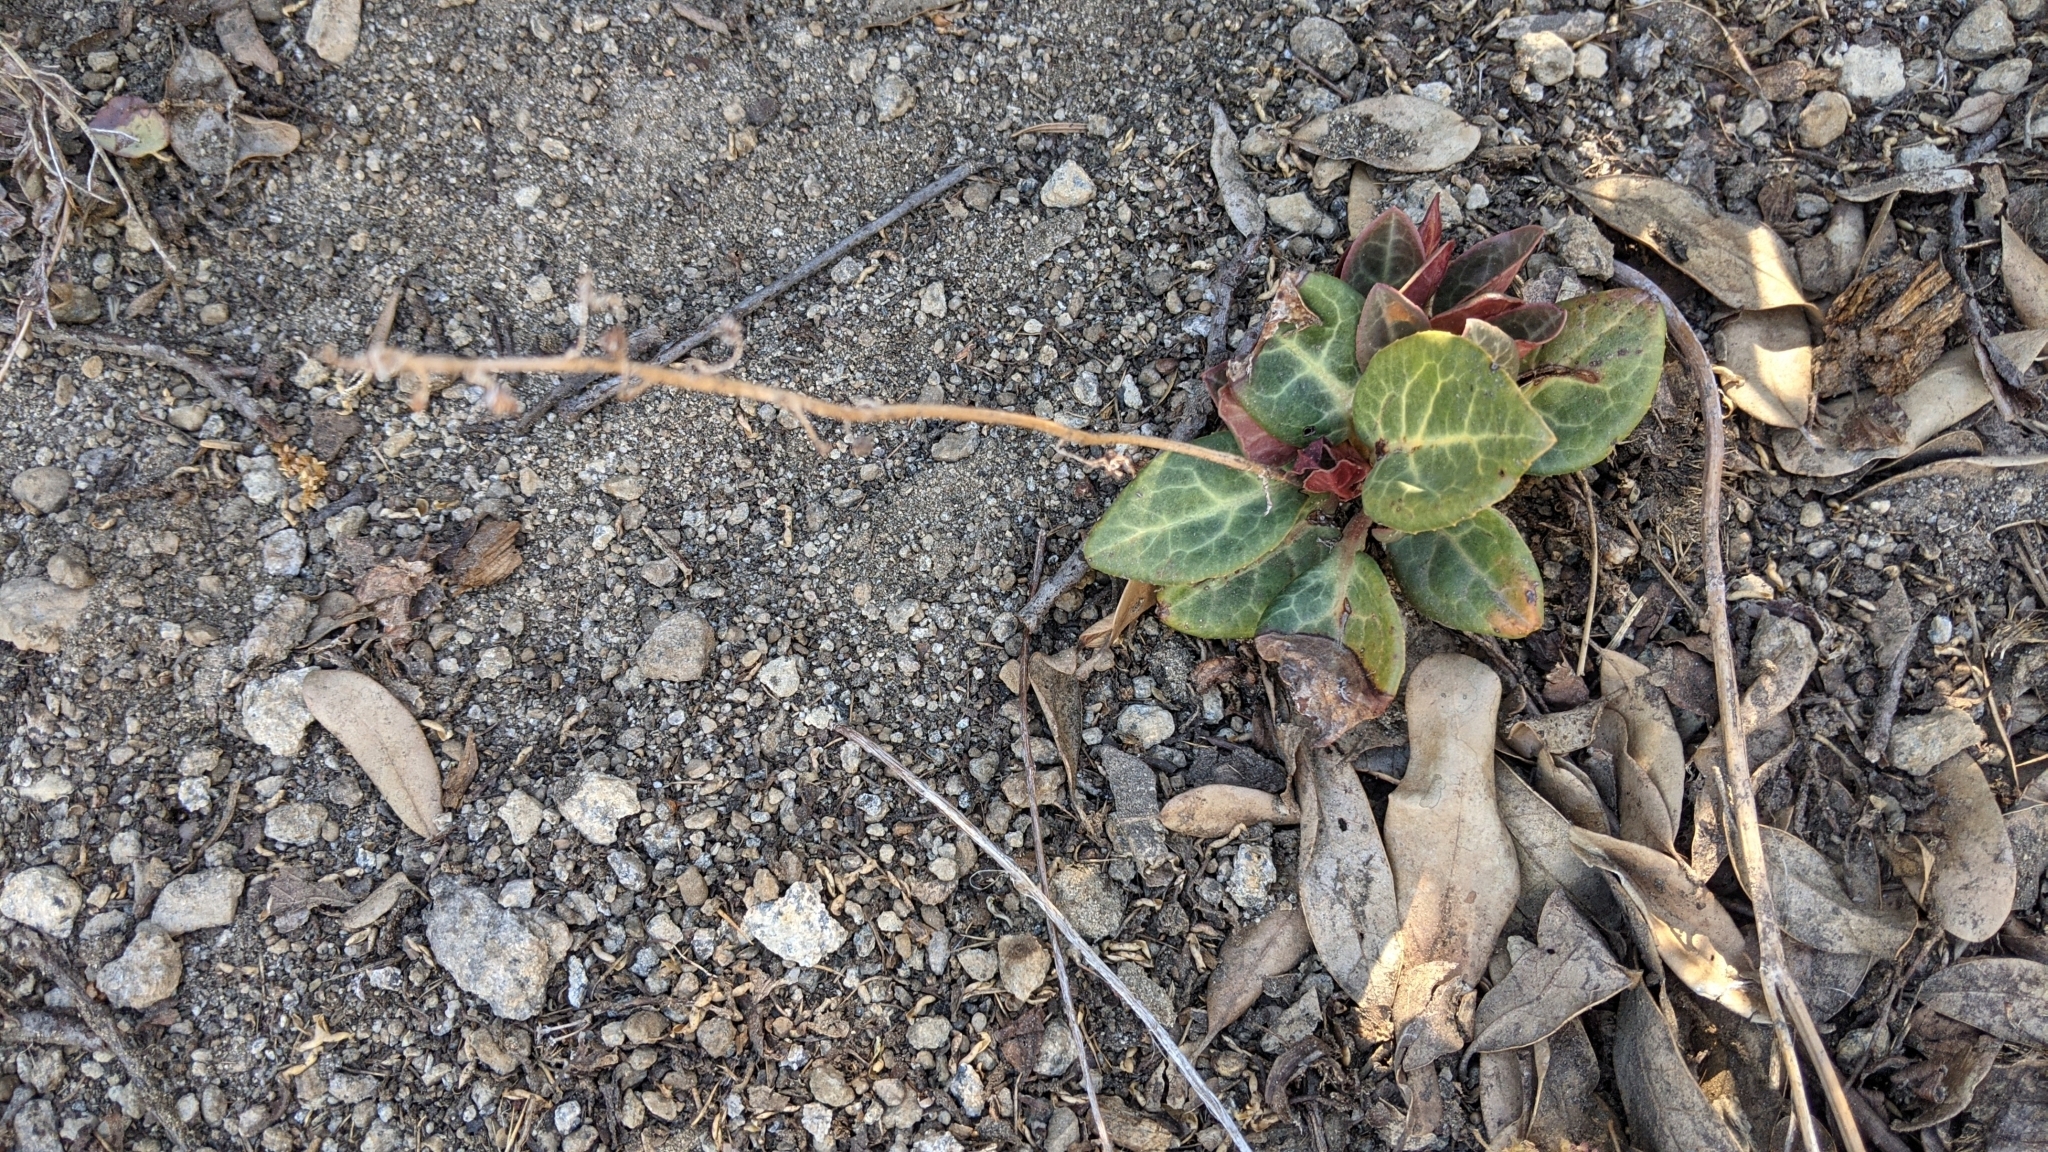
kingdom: Plantae
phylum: Tracheophyta
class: Magnoliopsida
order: Ericales
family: Ericaceae
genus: Pyrola
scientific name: Pyrola picta
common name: White-vein wintergreen
